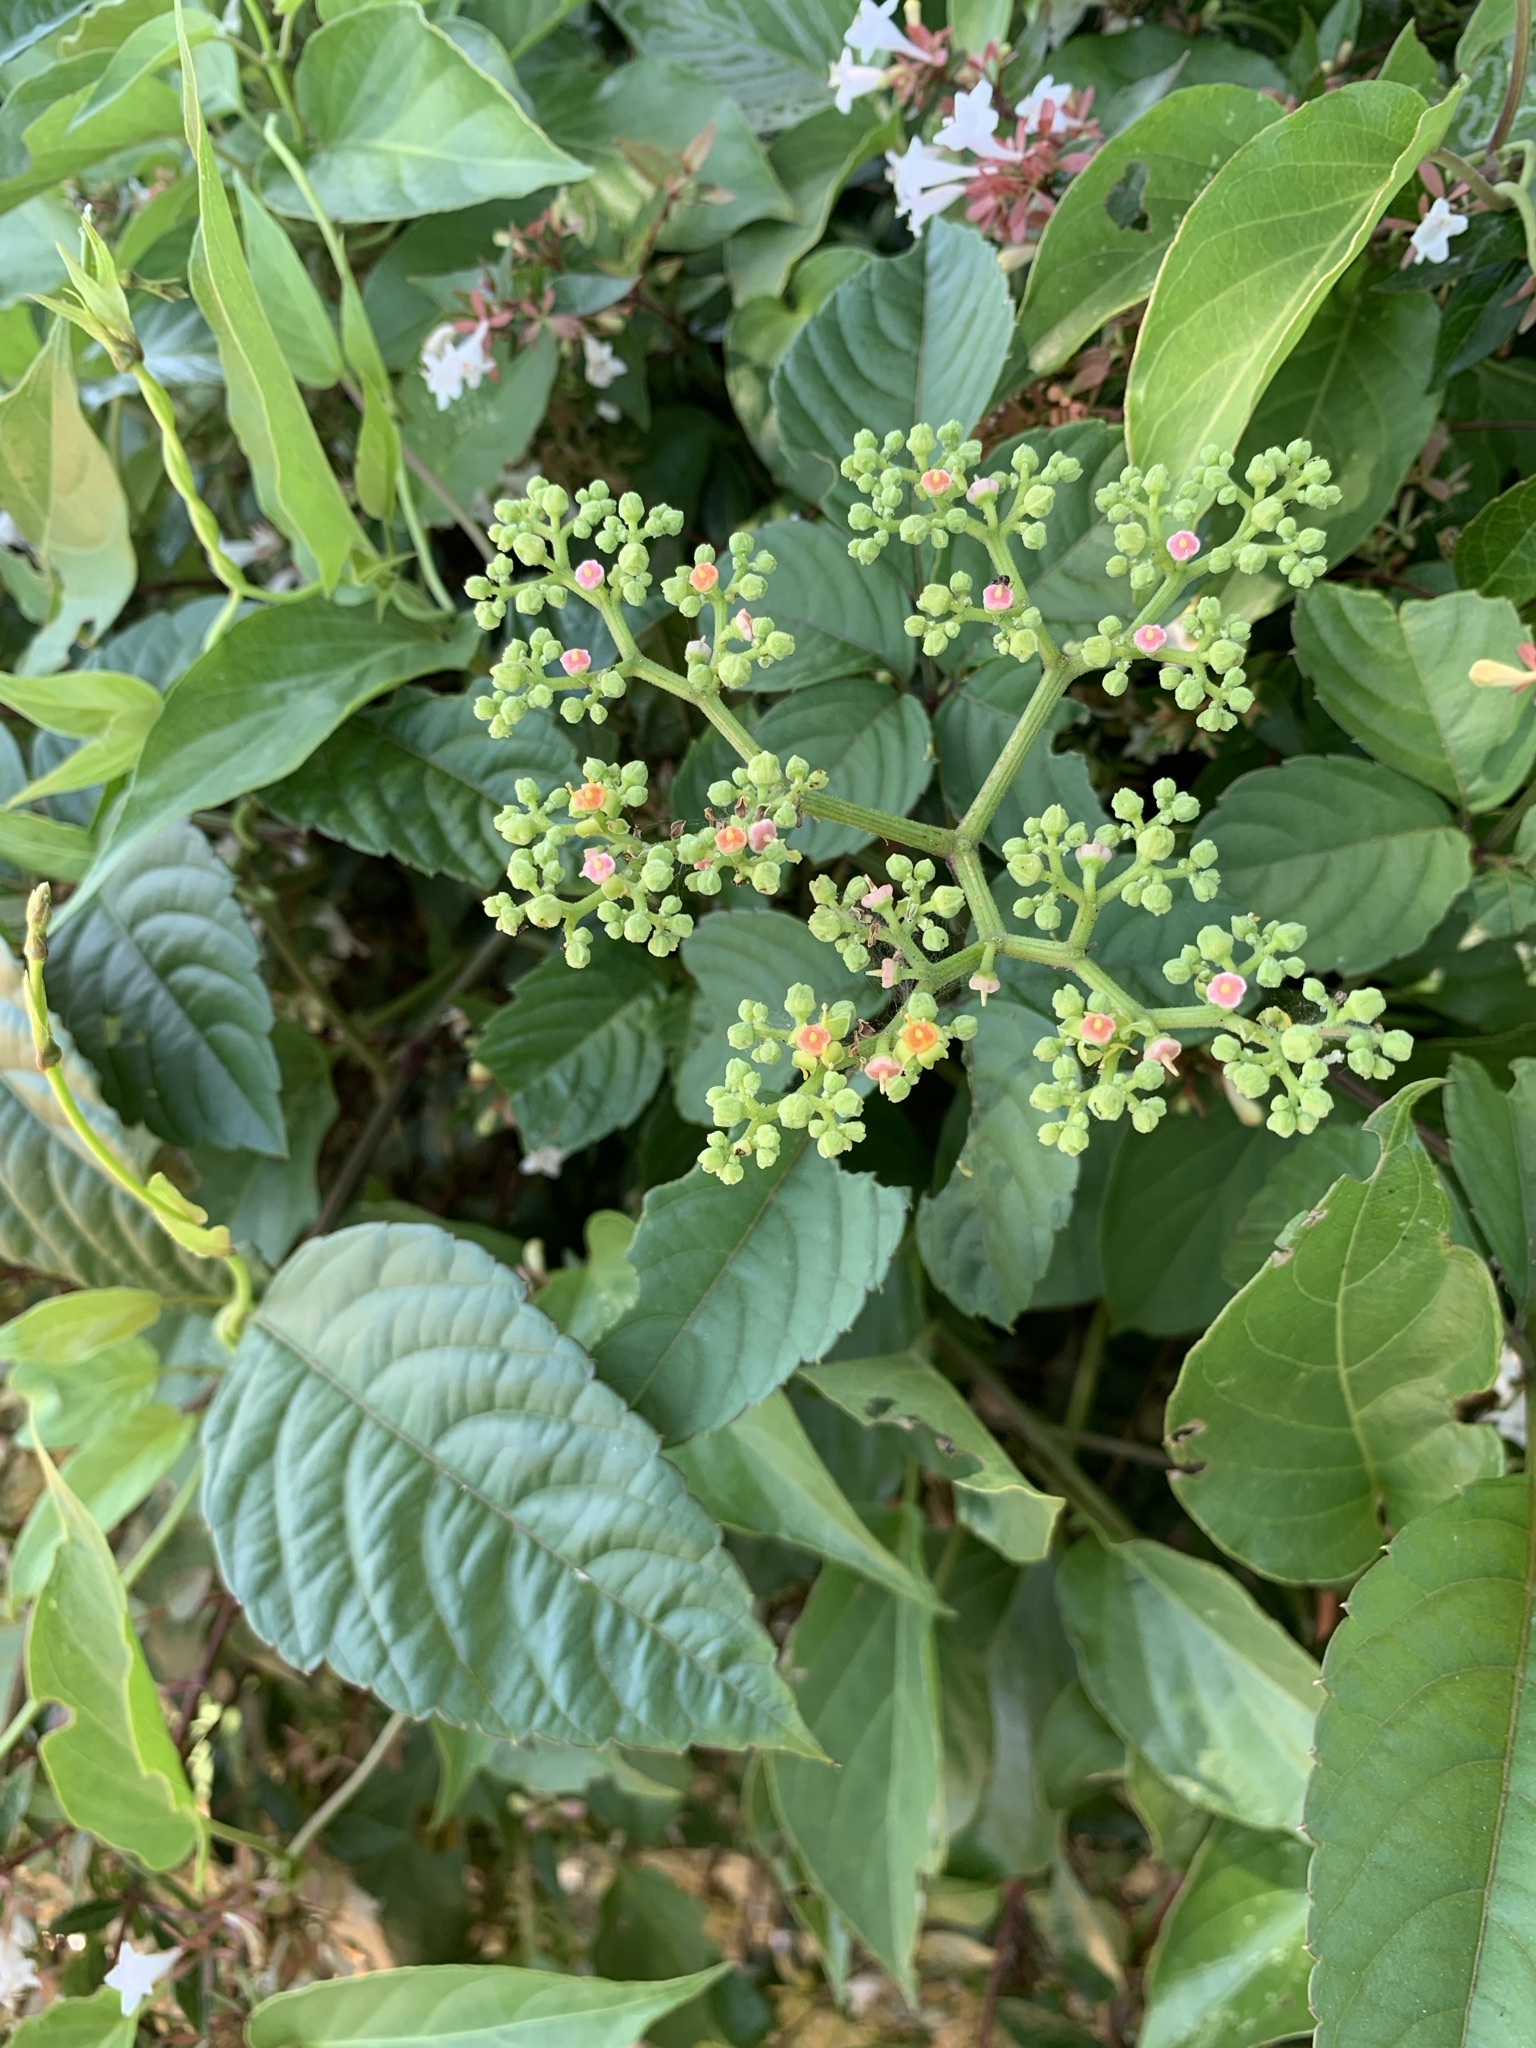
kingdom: Plantae
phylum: Tracheophyta
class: Magnoliopsida
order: Vitales
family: Vitaceae
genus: Causonis
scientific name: Causonis japonica
